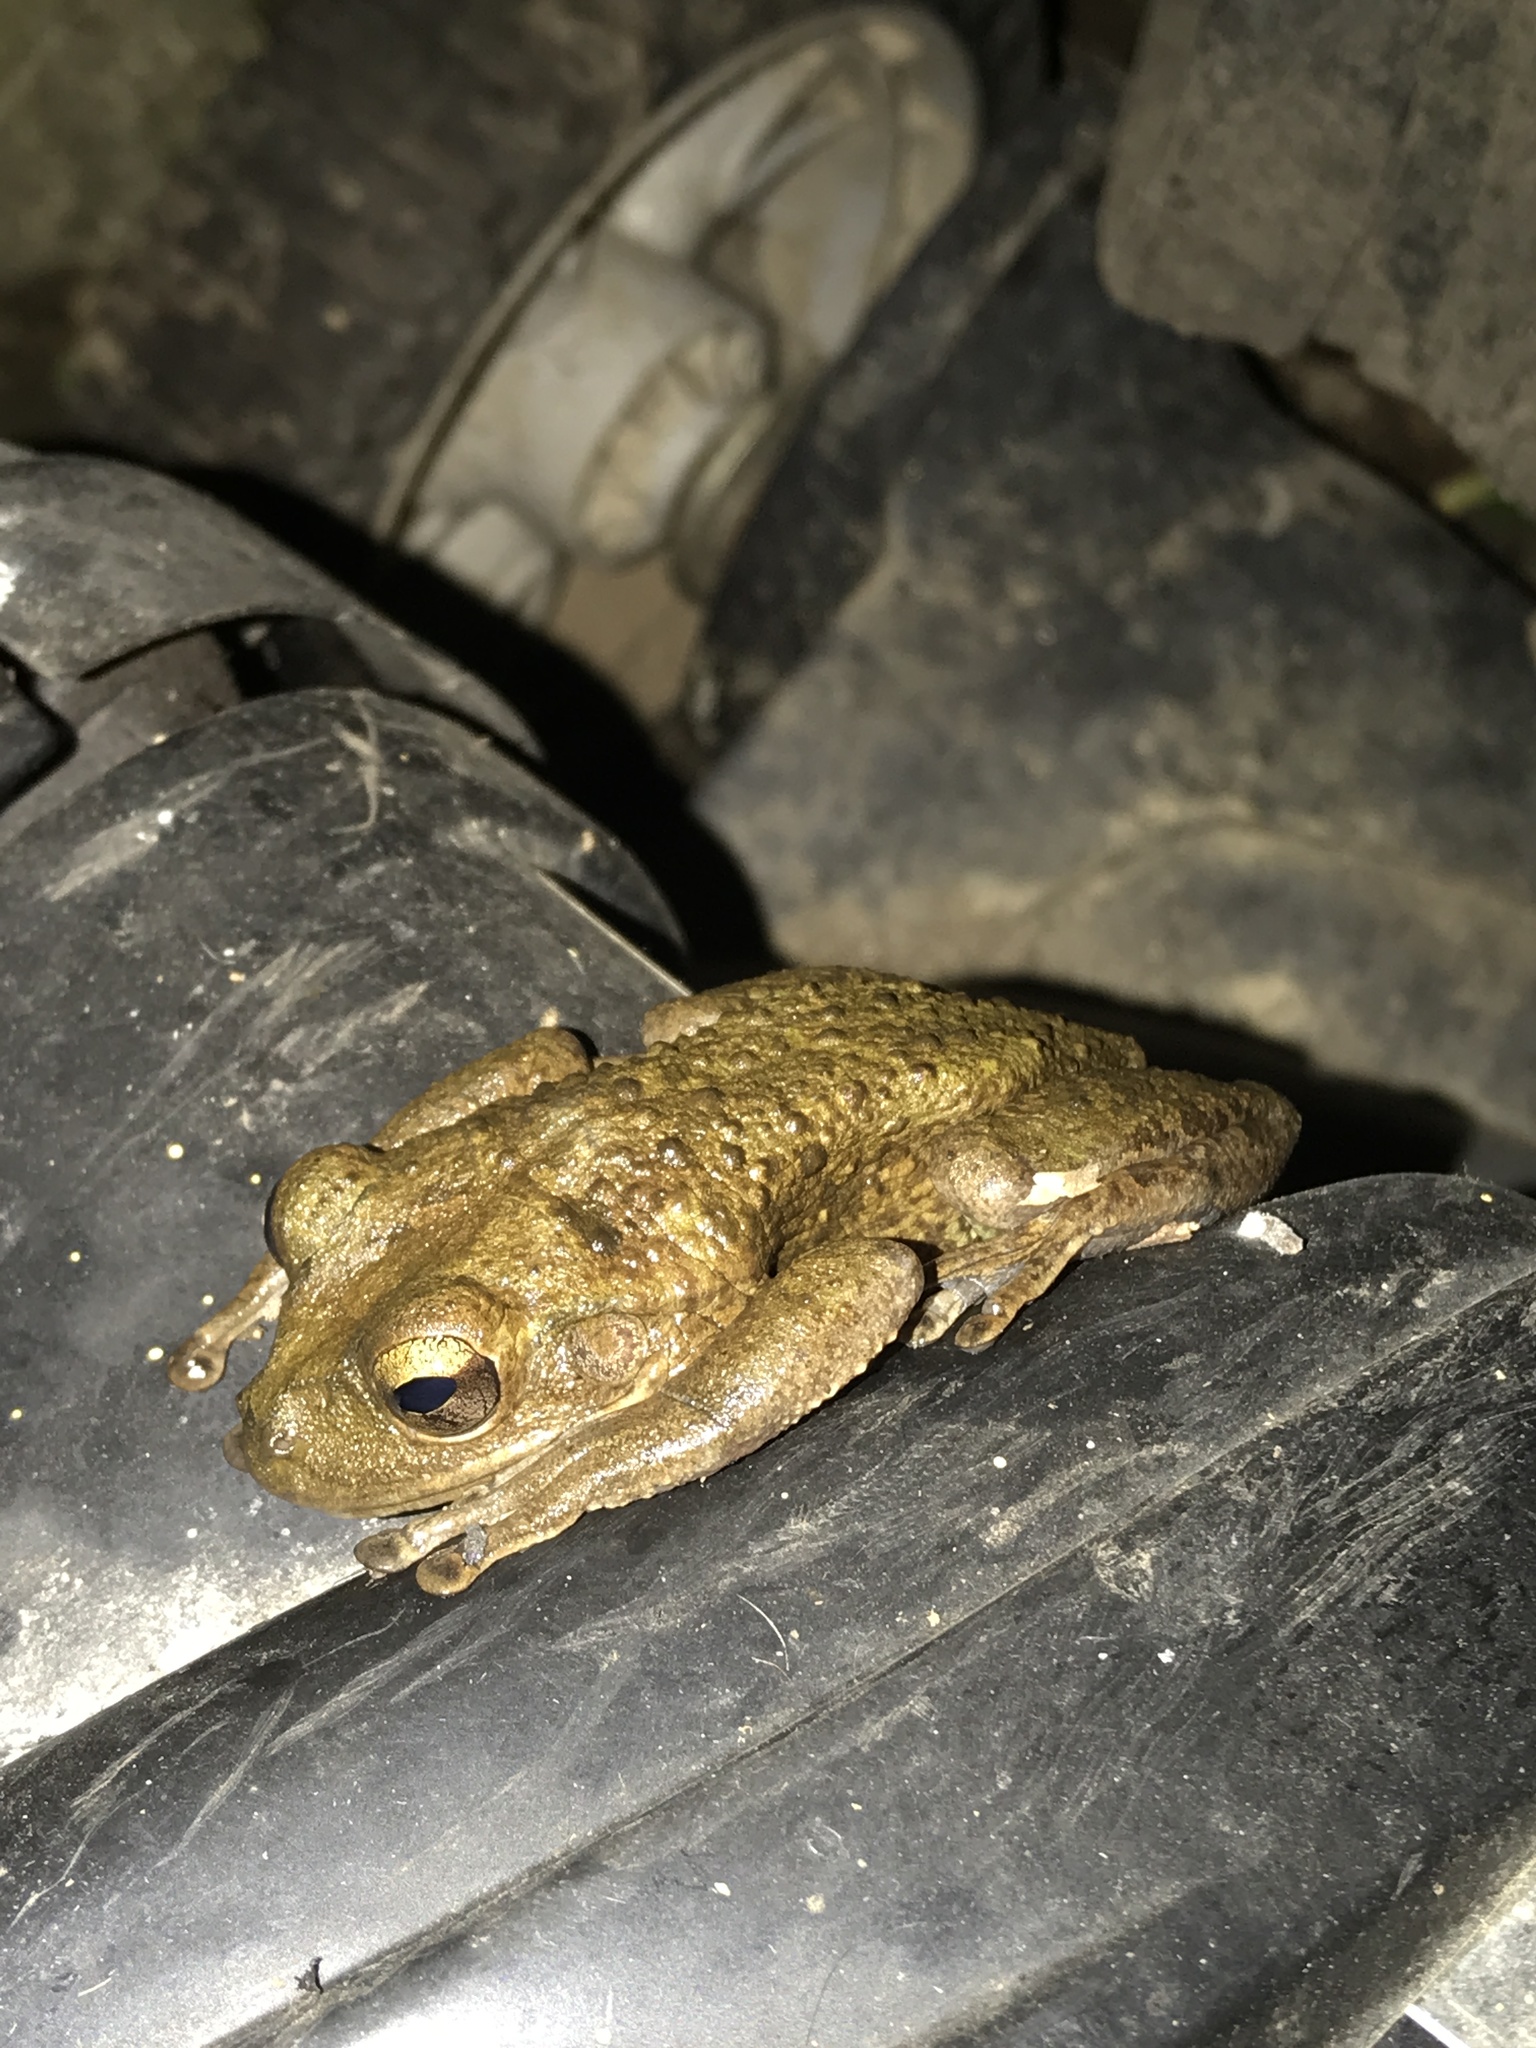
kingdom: Animalia
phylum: Chordata
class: Amphibia
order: Anura
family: Hylidae
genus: Osteopilus
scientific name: Osteopilus septentrionalis
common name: Cuban treefrog
